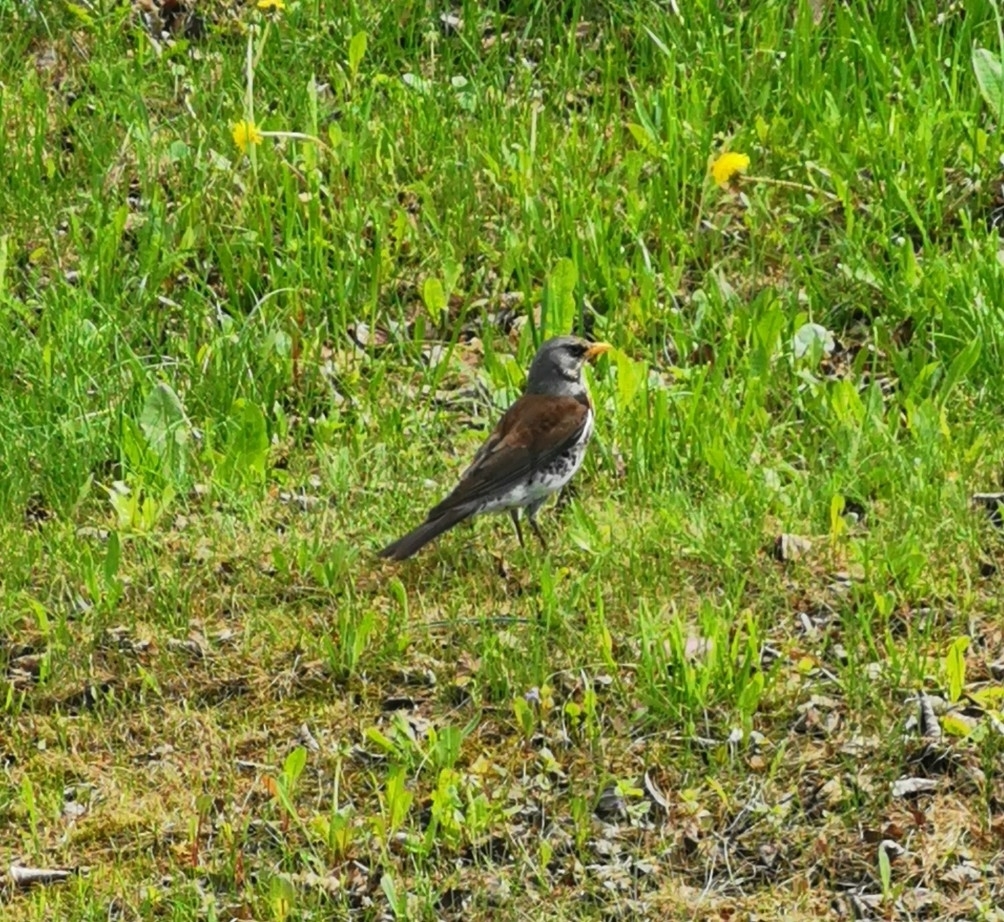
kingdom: Animalia
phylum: Chordata
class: Aves
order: Passeriformes
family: Turdidae
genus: Turdus
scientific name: Turdus pilaris
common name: Fieldfare
